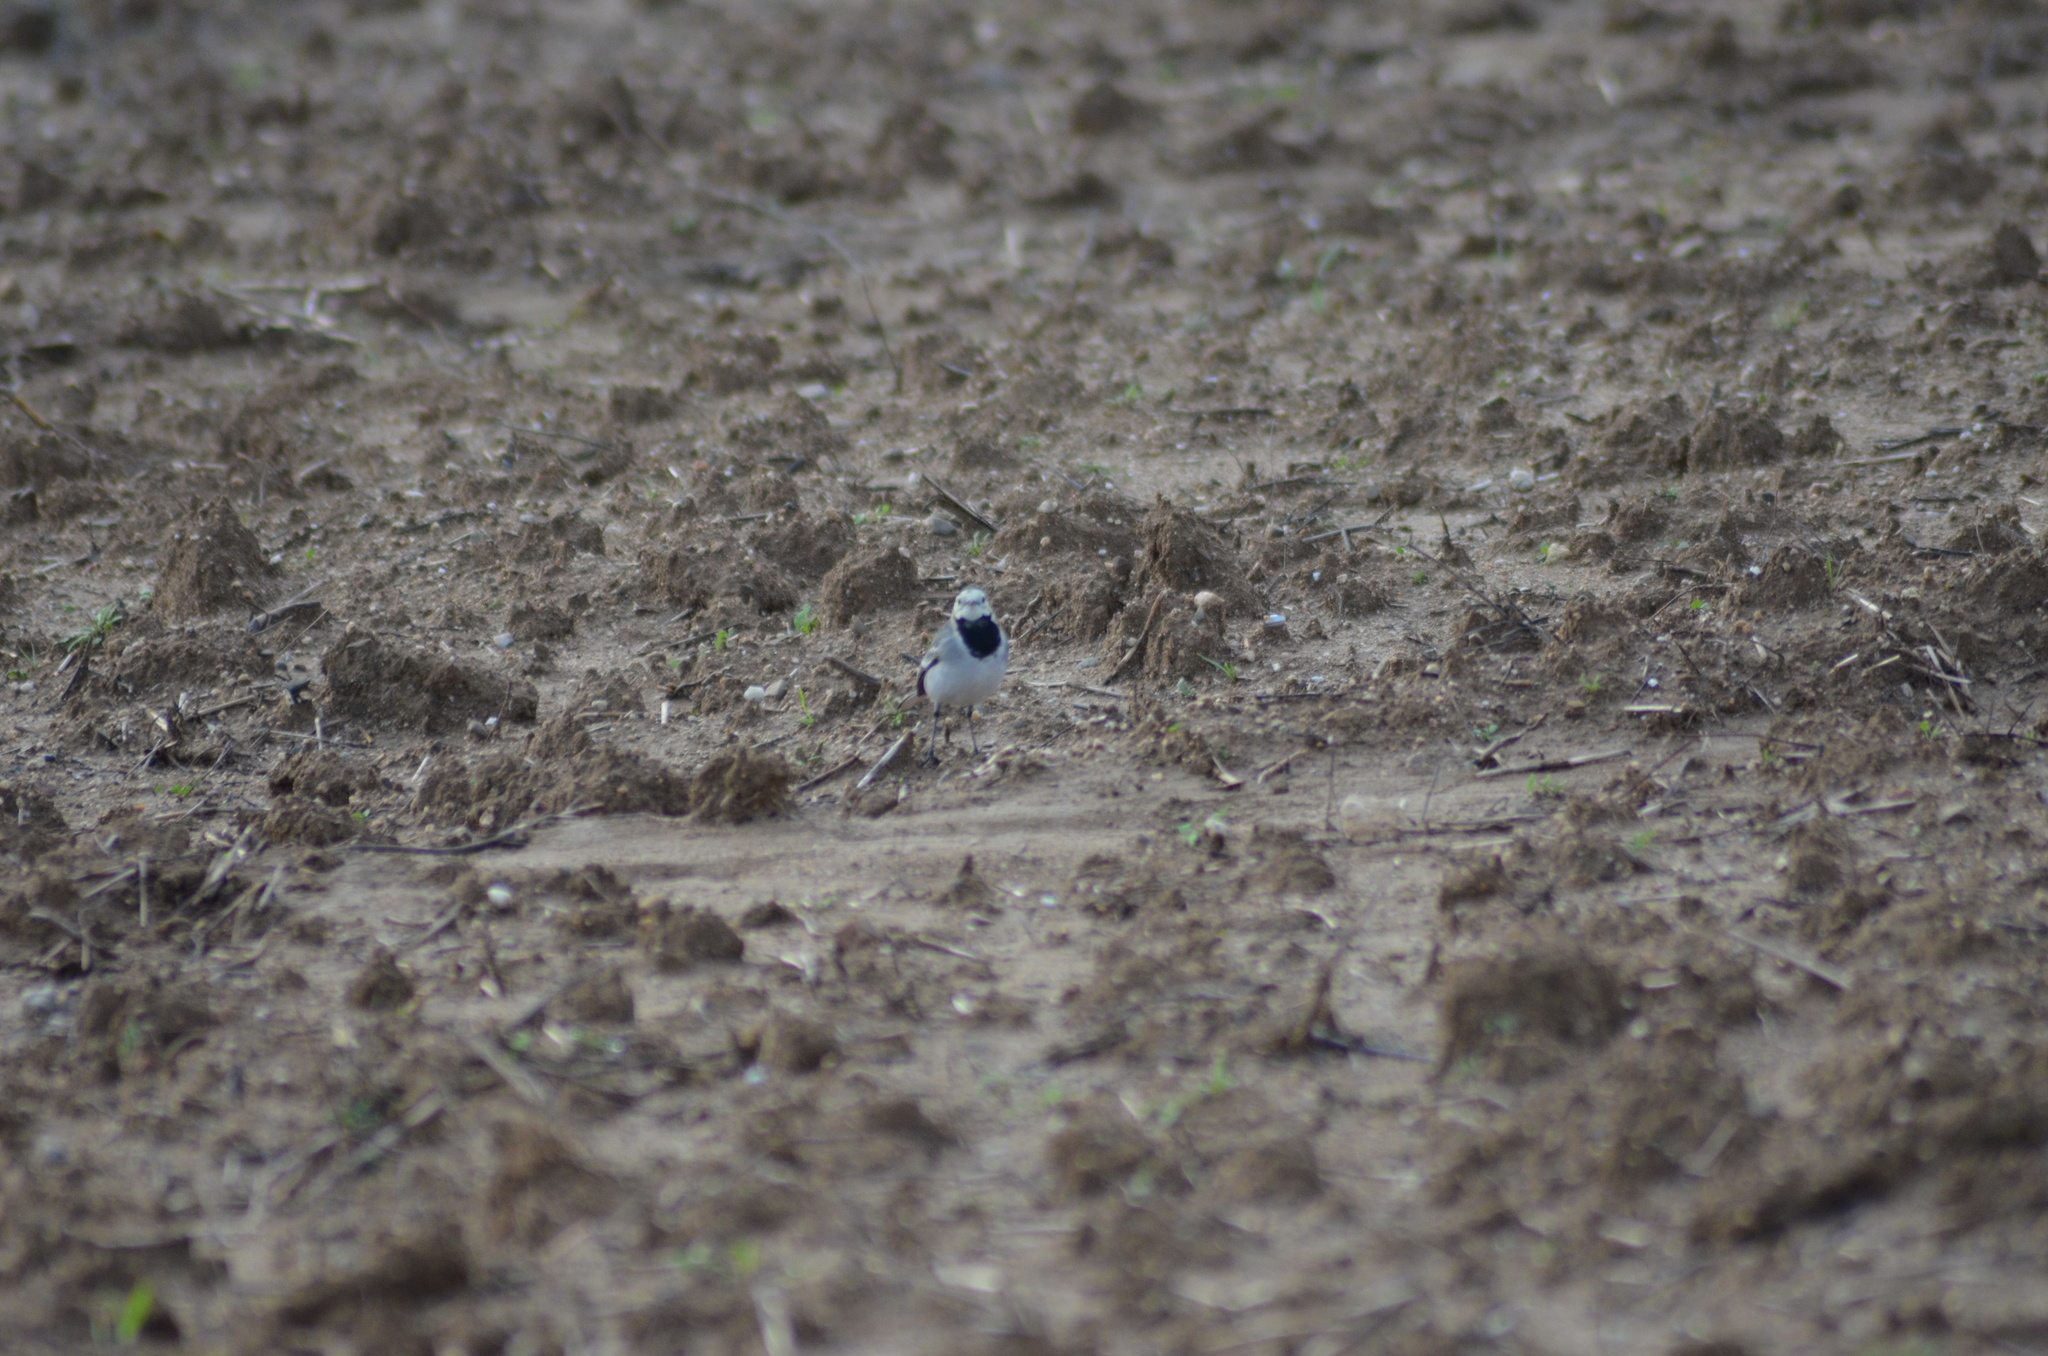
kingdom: Animalia
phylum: Chordata
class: Aves
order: Passeriformes
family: Motacillidae
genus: Motacilla
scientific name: Motacilla alba
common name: White wagtail
